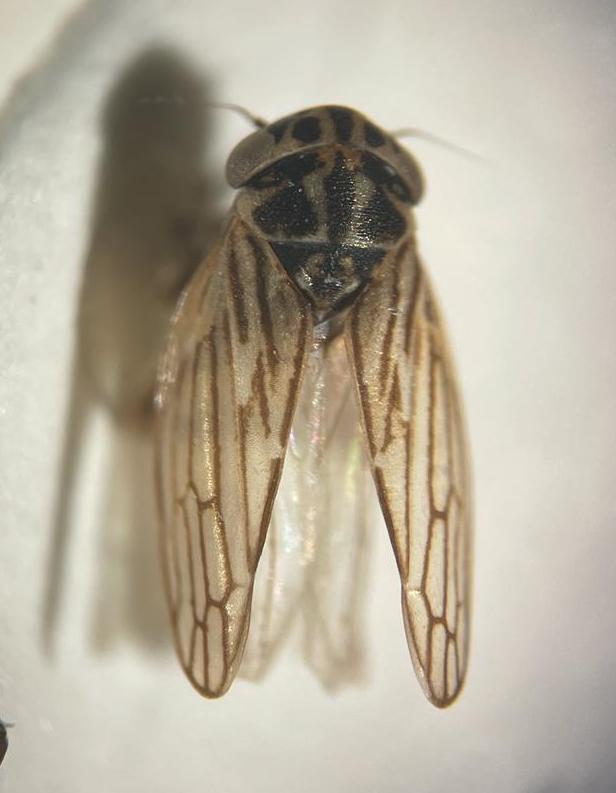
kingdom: Animalia
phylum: Arthropoda
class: Insecta
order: Hemiptera
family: Cicadellidae
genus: Anaceratagallia
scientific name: Anaceratagallia glabra
